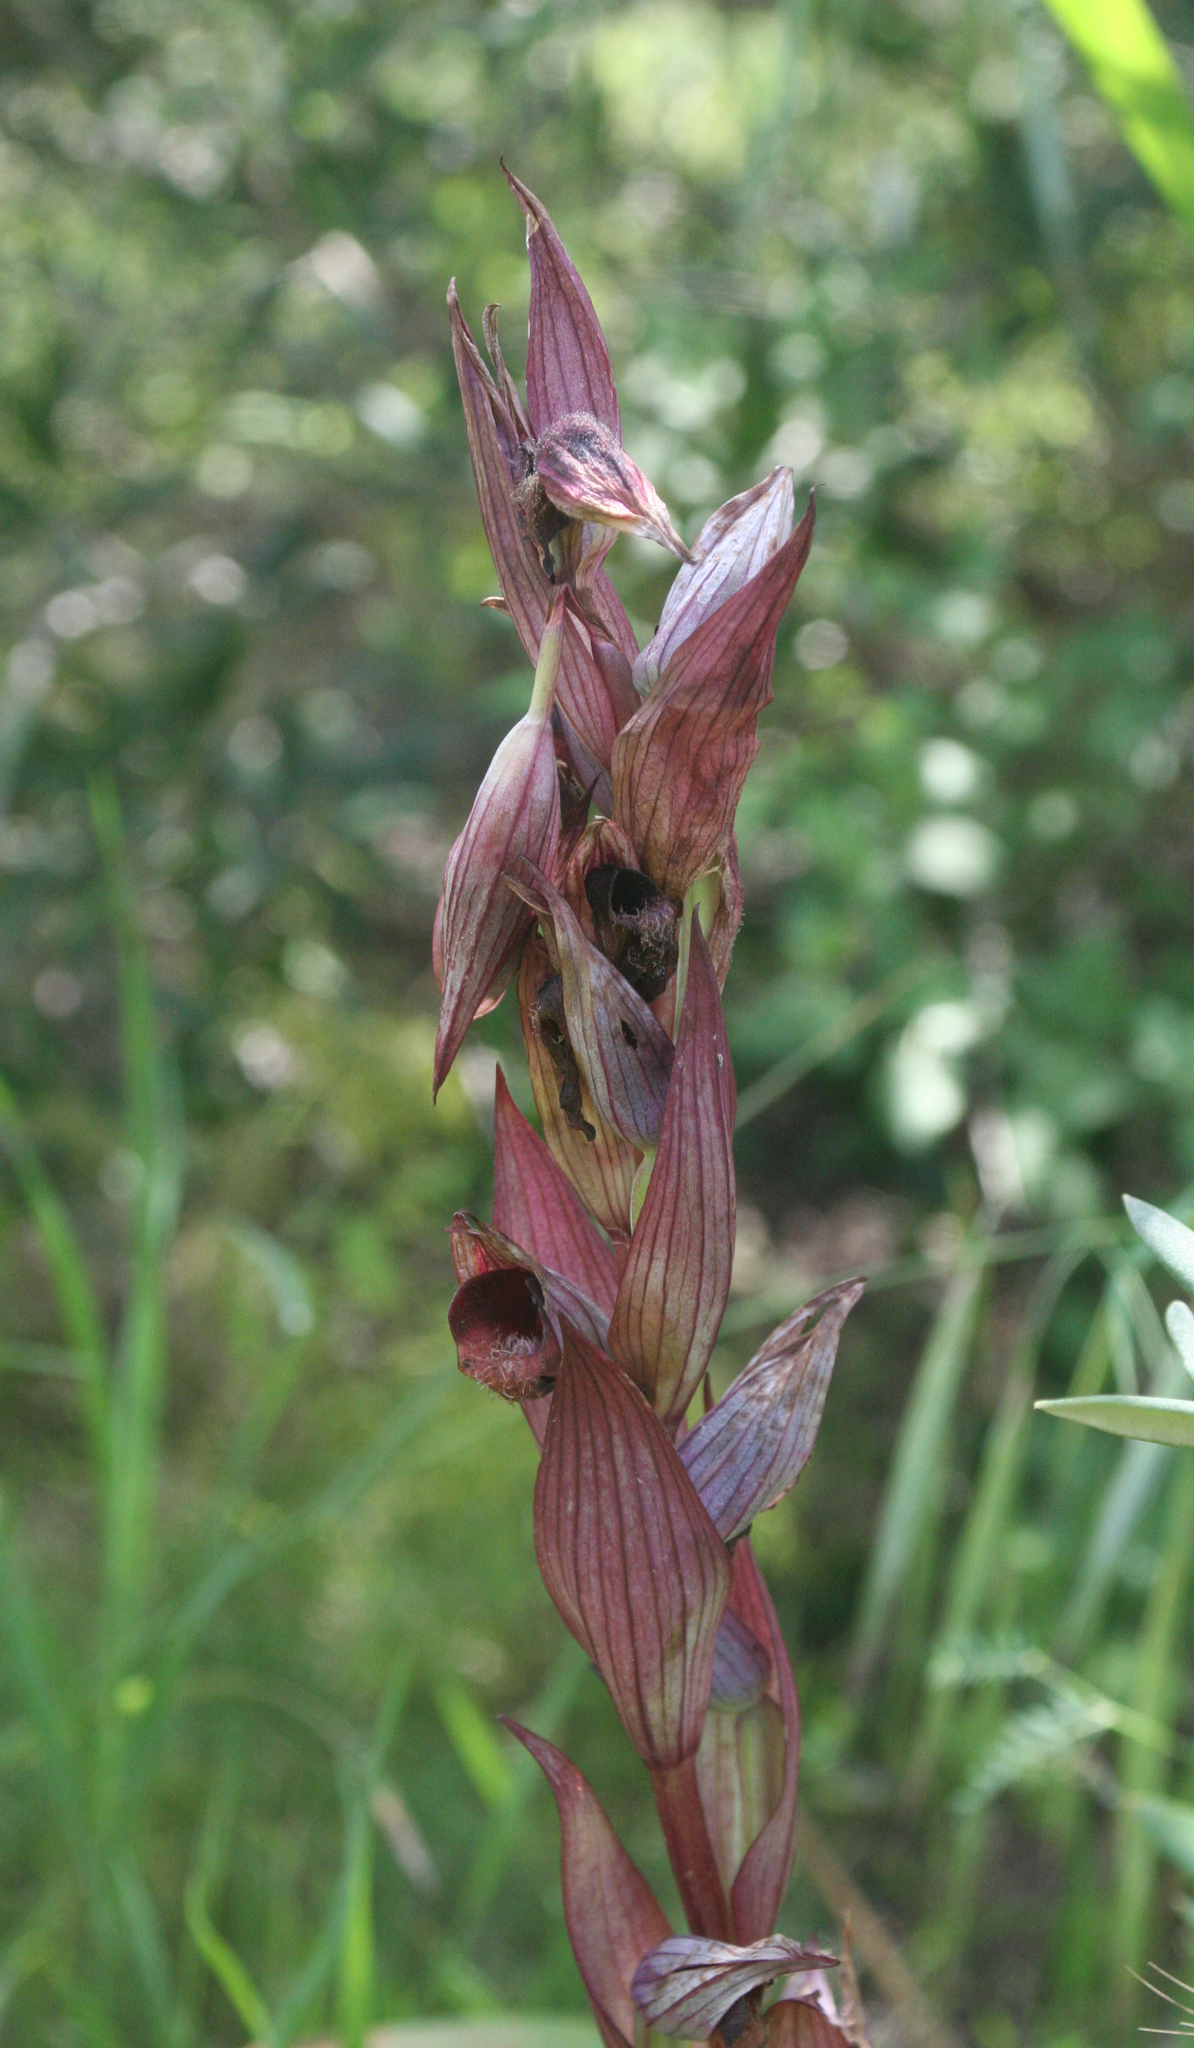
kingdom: Plantae
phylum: Tracheophyta
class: Liliopsida
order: Asparagales
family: Orchidaceae
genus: Serapias
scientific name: Serapias orientalis
